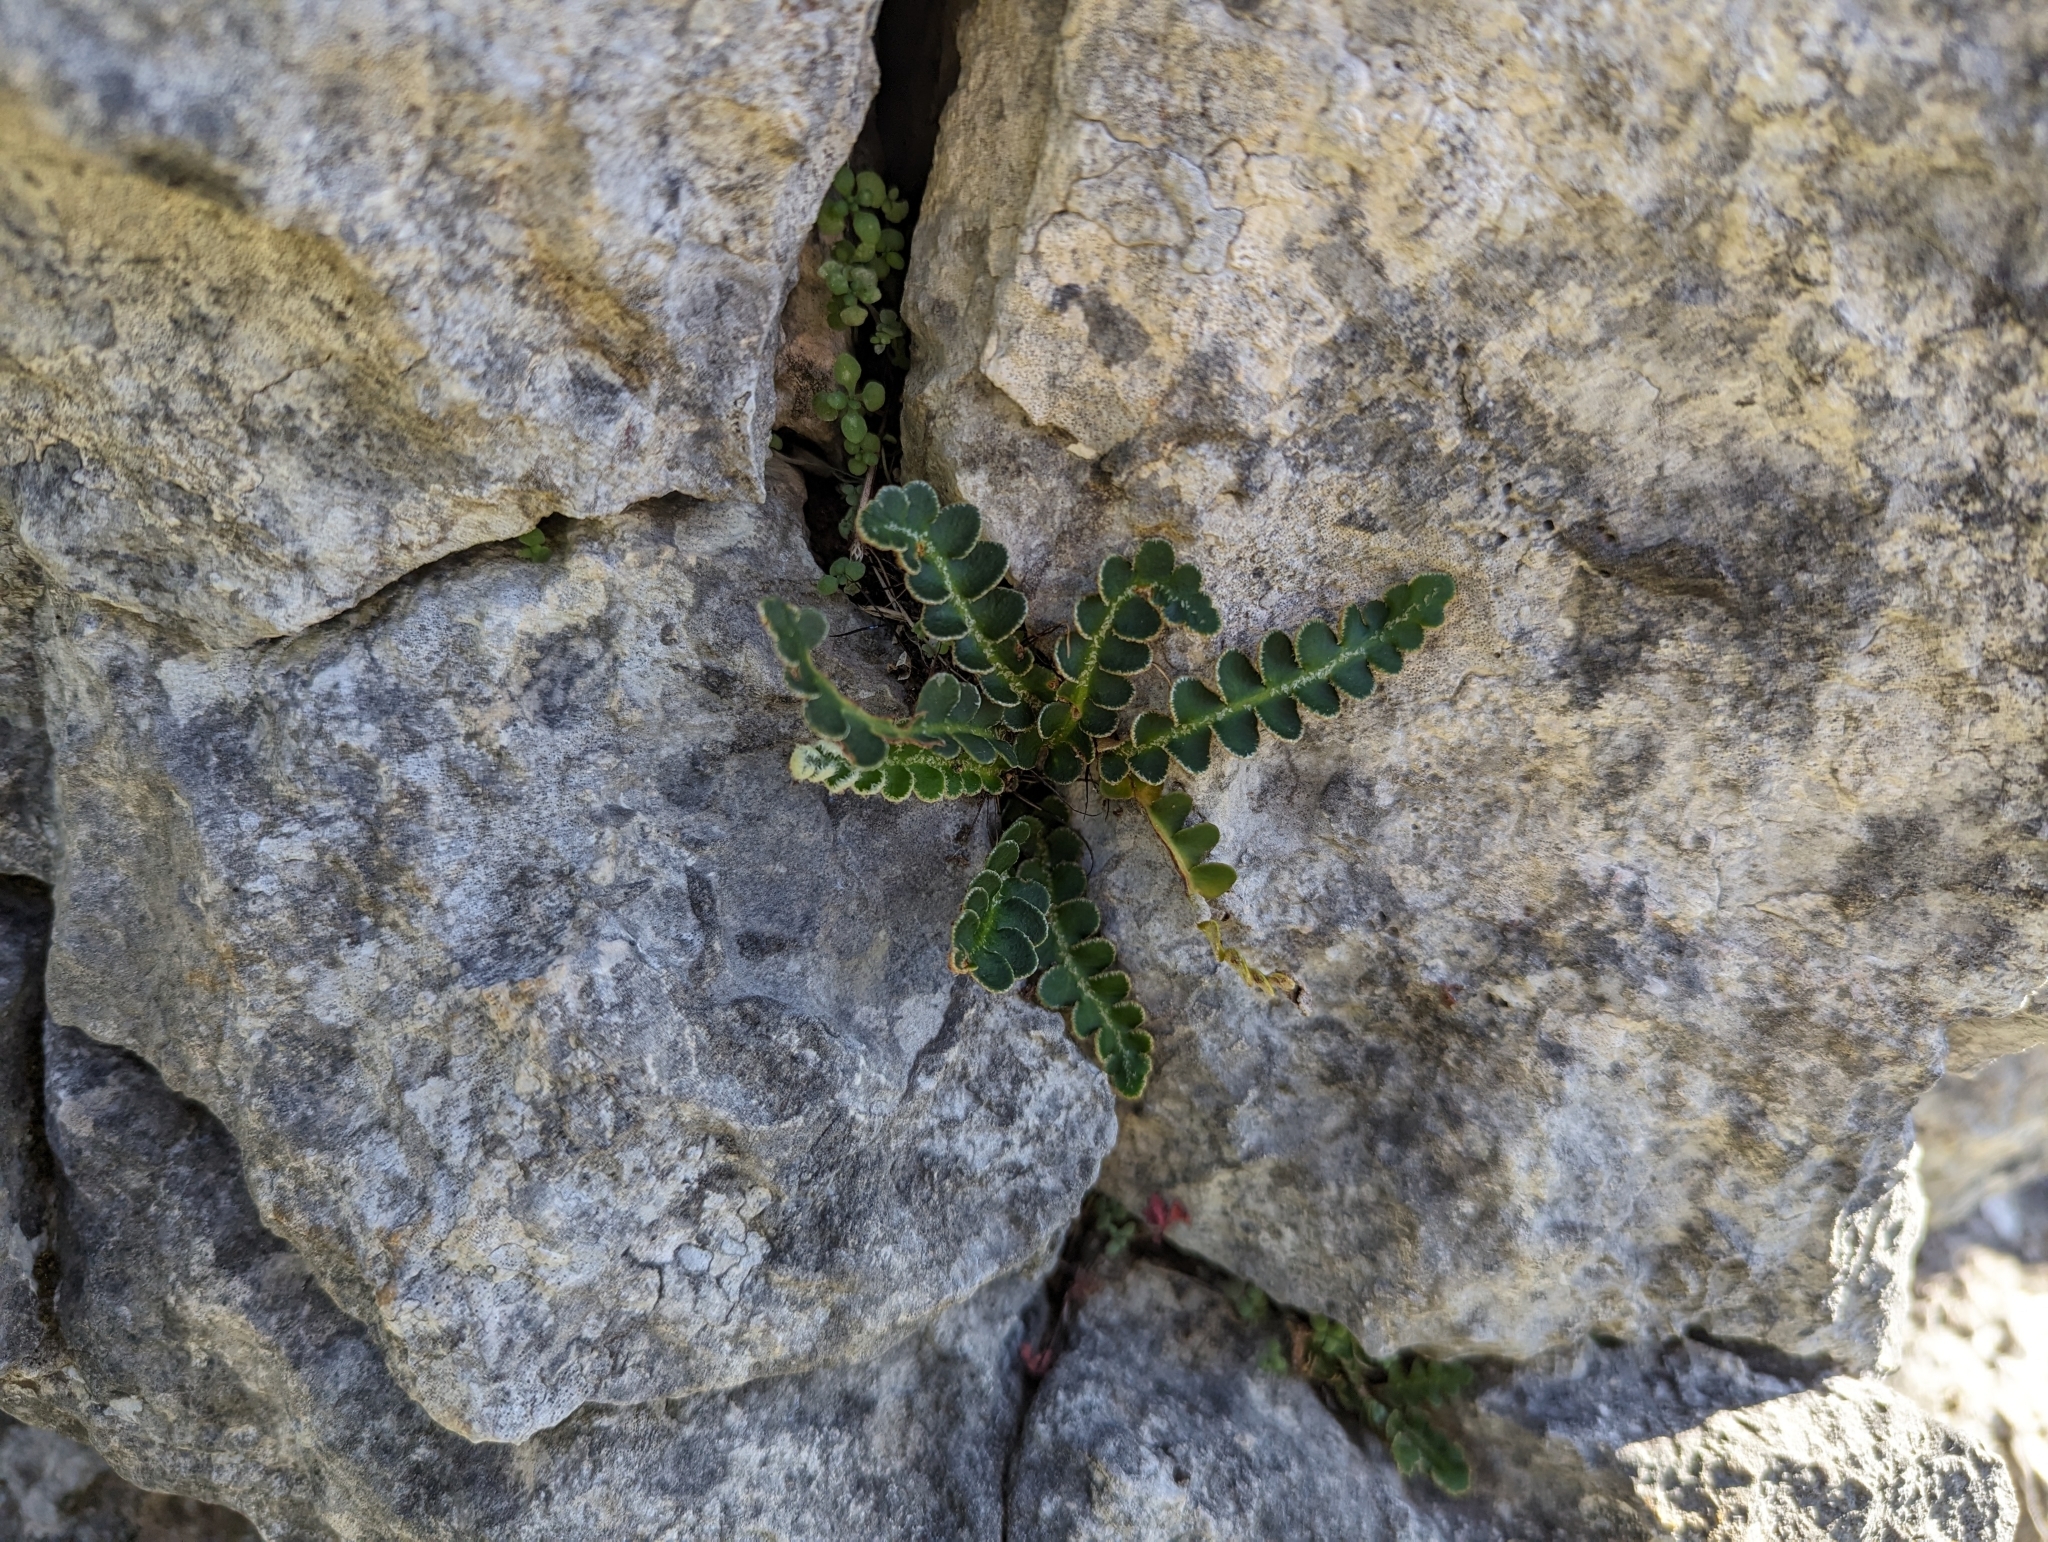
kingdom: Plantae
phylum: Tracheophyta
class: Polypodiopsida
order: Polypodiales
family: Aspleniaceae
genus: Asplenium
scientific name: Asplenium ceterach
